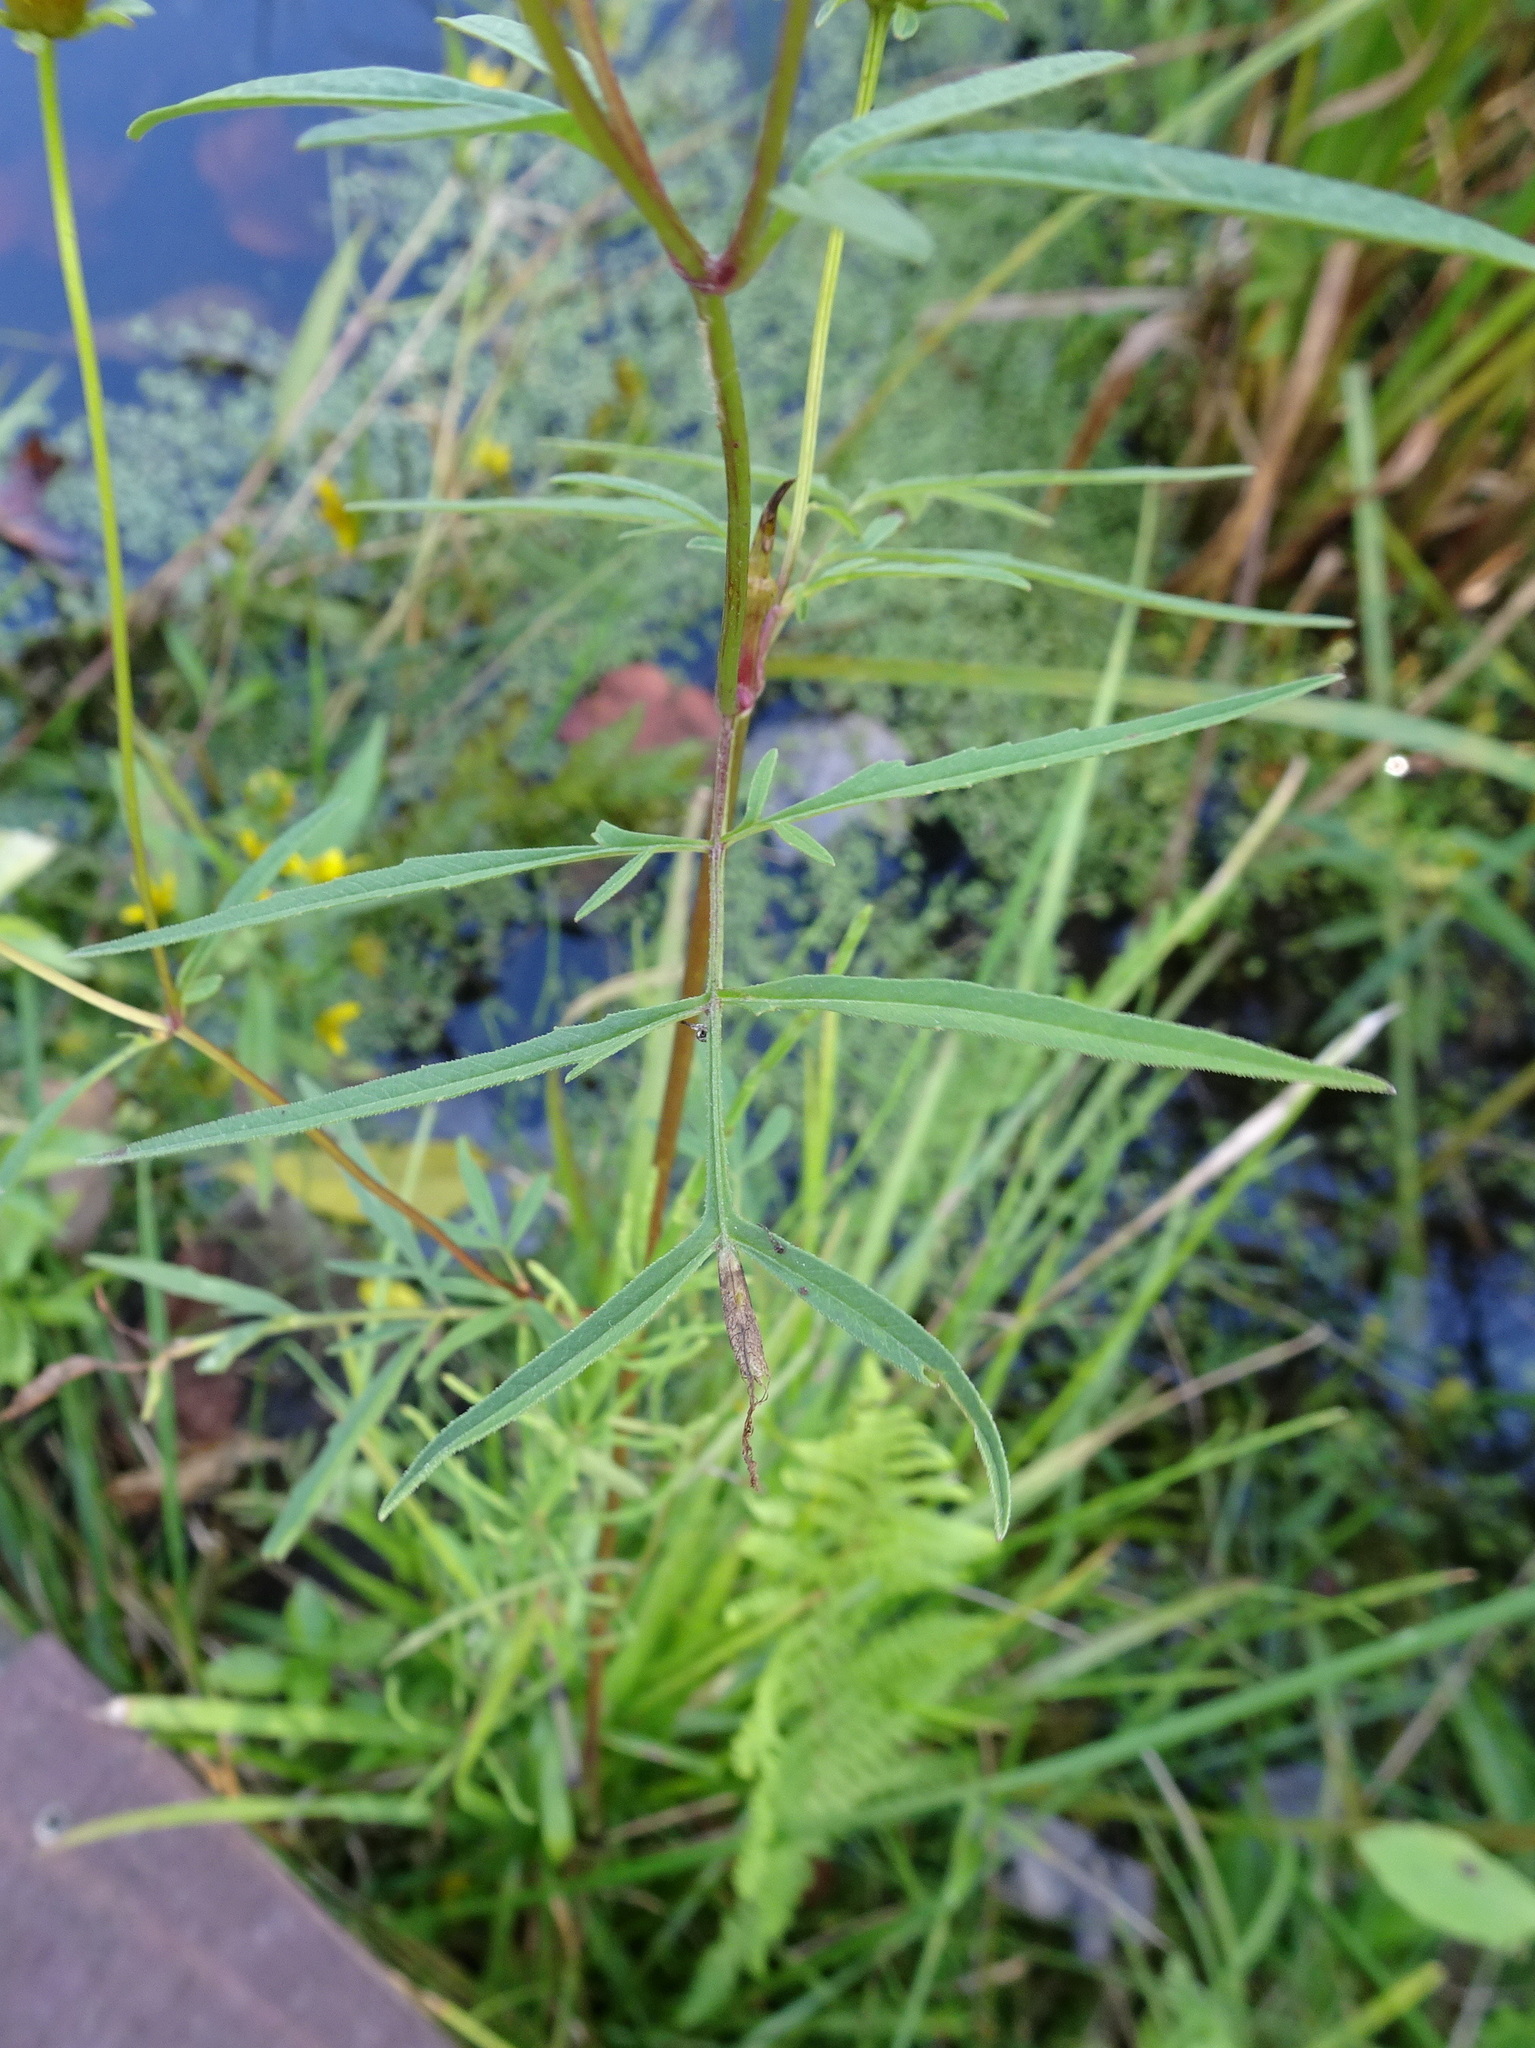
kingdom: Plantae
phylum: Tracheophyta
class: Magnoliopsida
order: Asterales
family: Asteraceae
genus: Bidens
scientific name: Bidens trichosperma
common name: Crowned beggarticks
